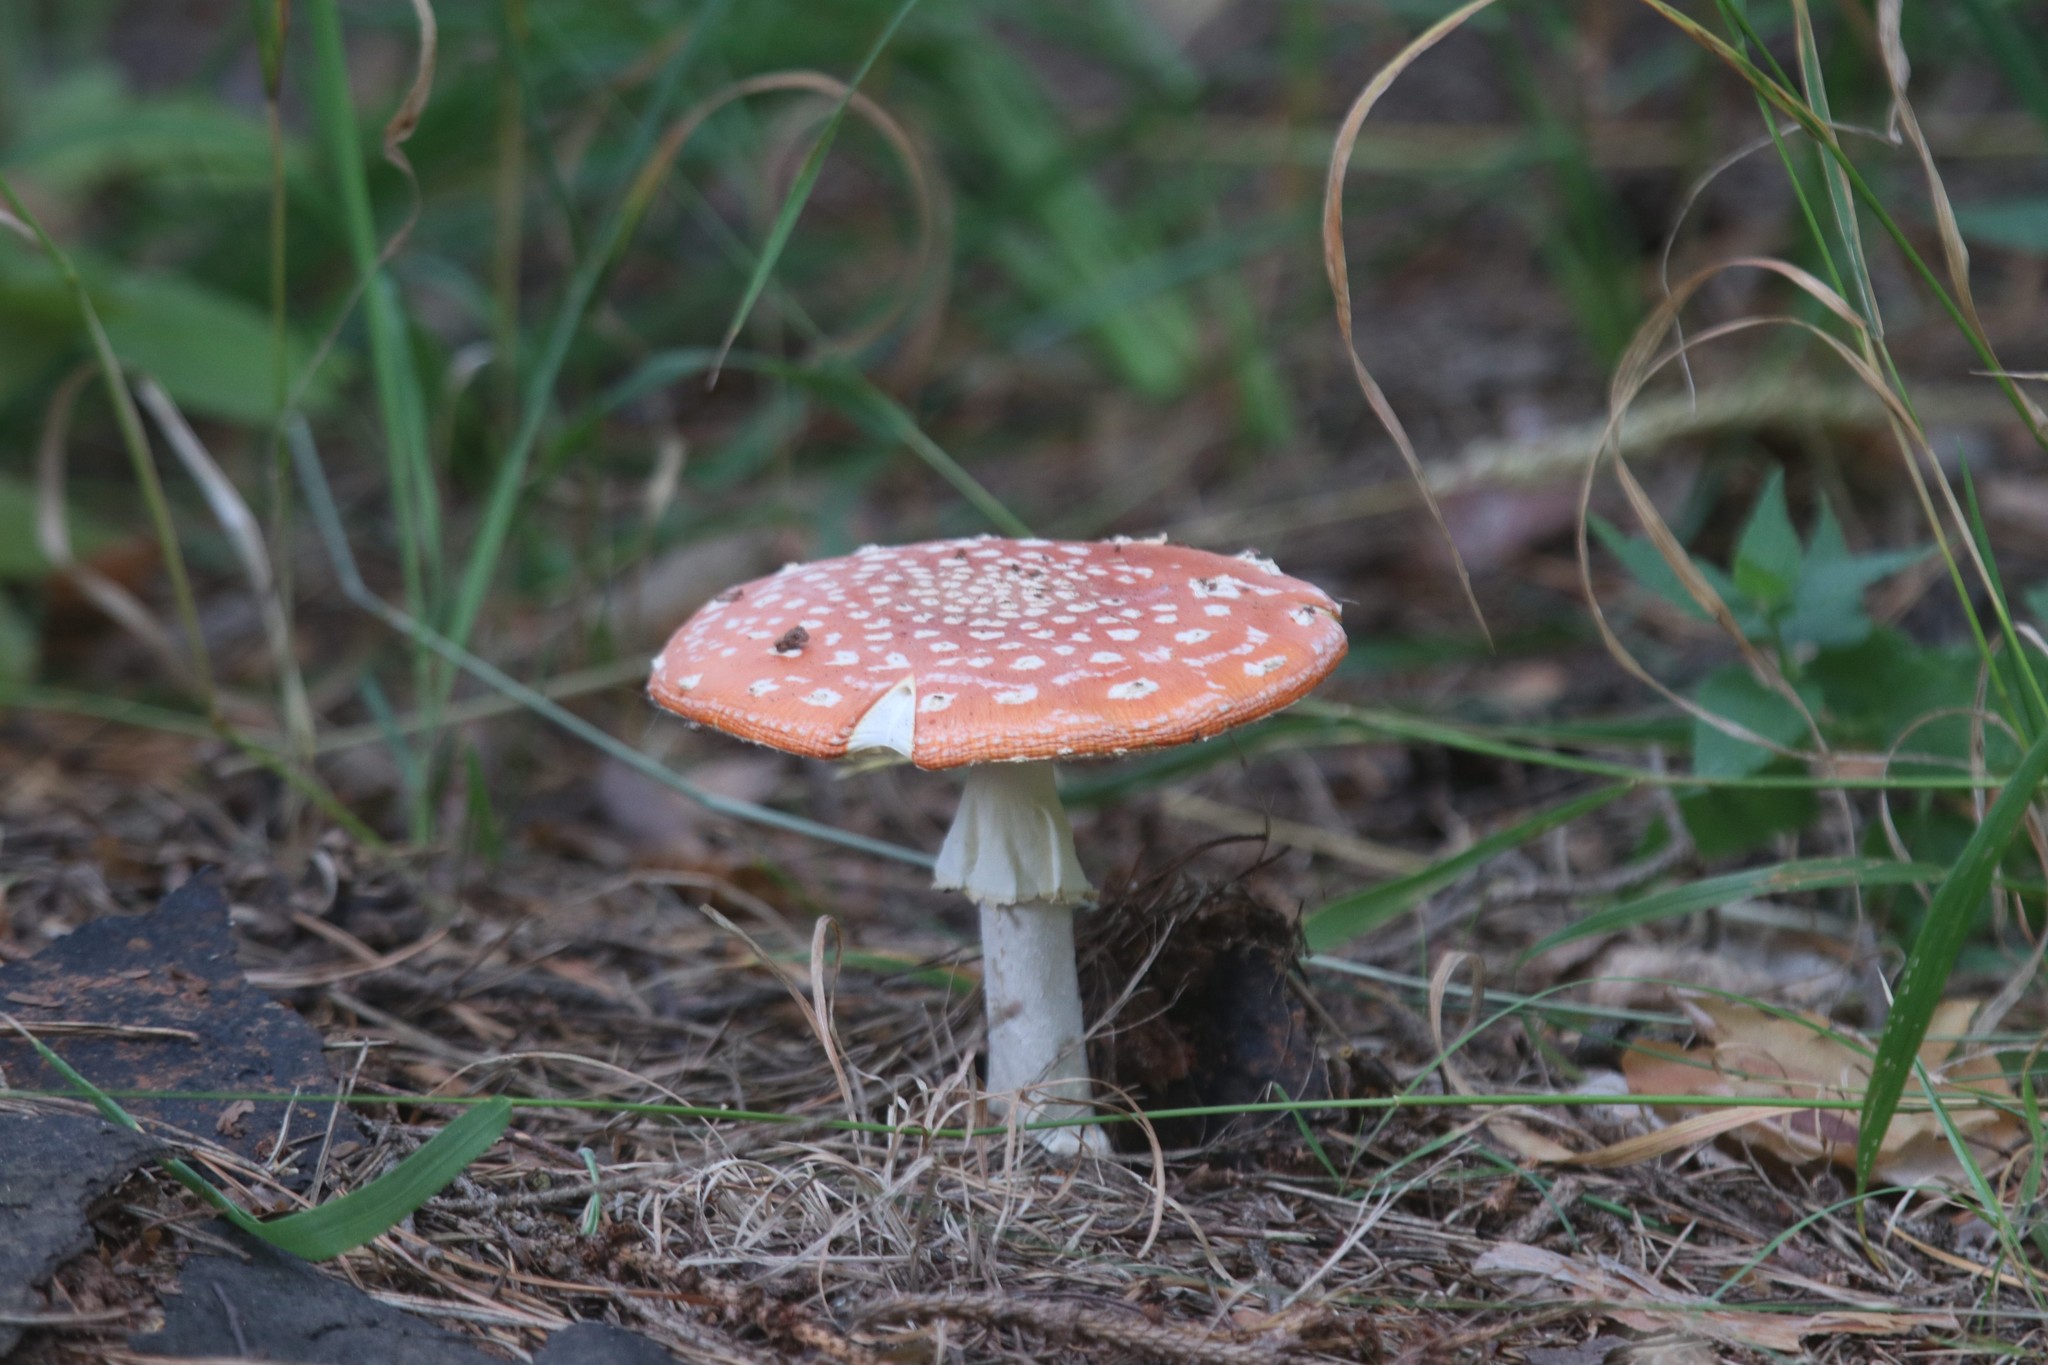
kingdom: Fungi
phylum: Basidiomycota
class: Agaricomycetes
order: Agaricales
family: Amanitaceae
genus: Amanita
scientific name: Amanita muscaria
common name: Fly agaric
